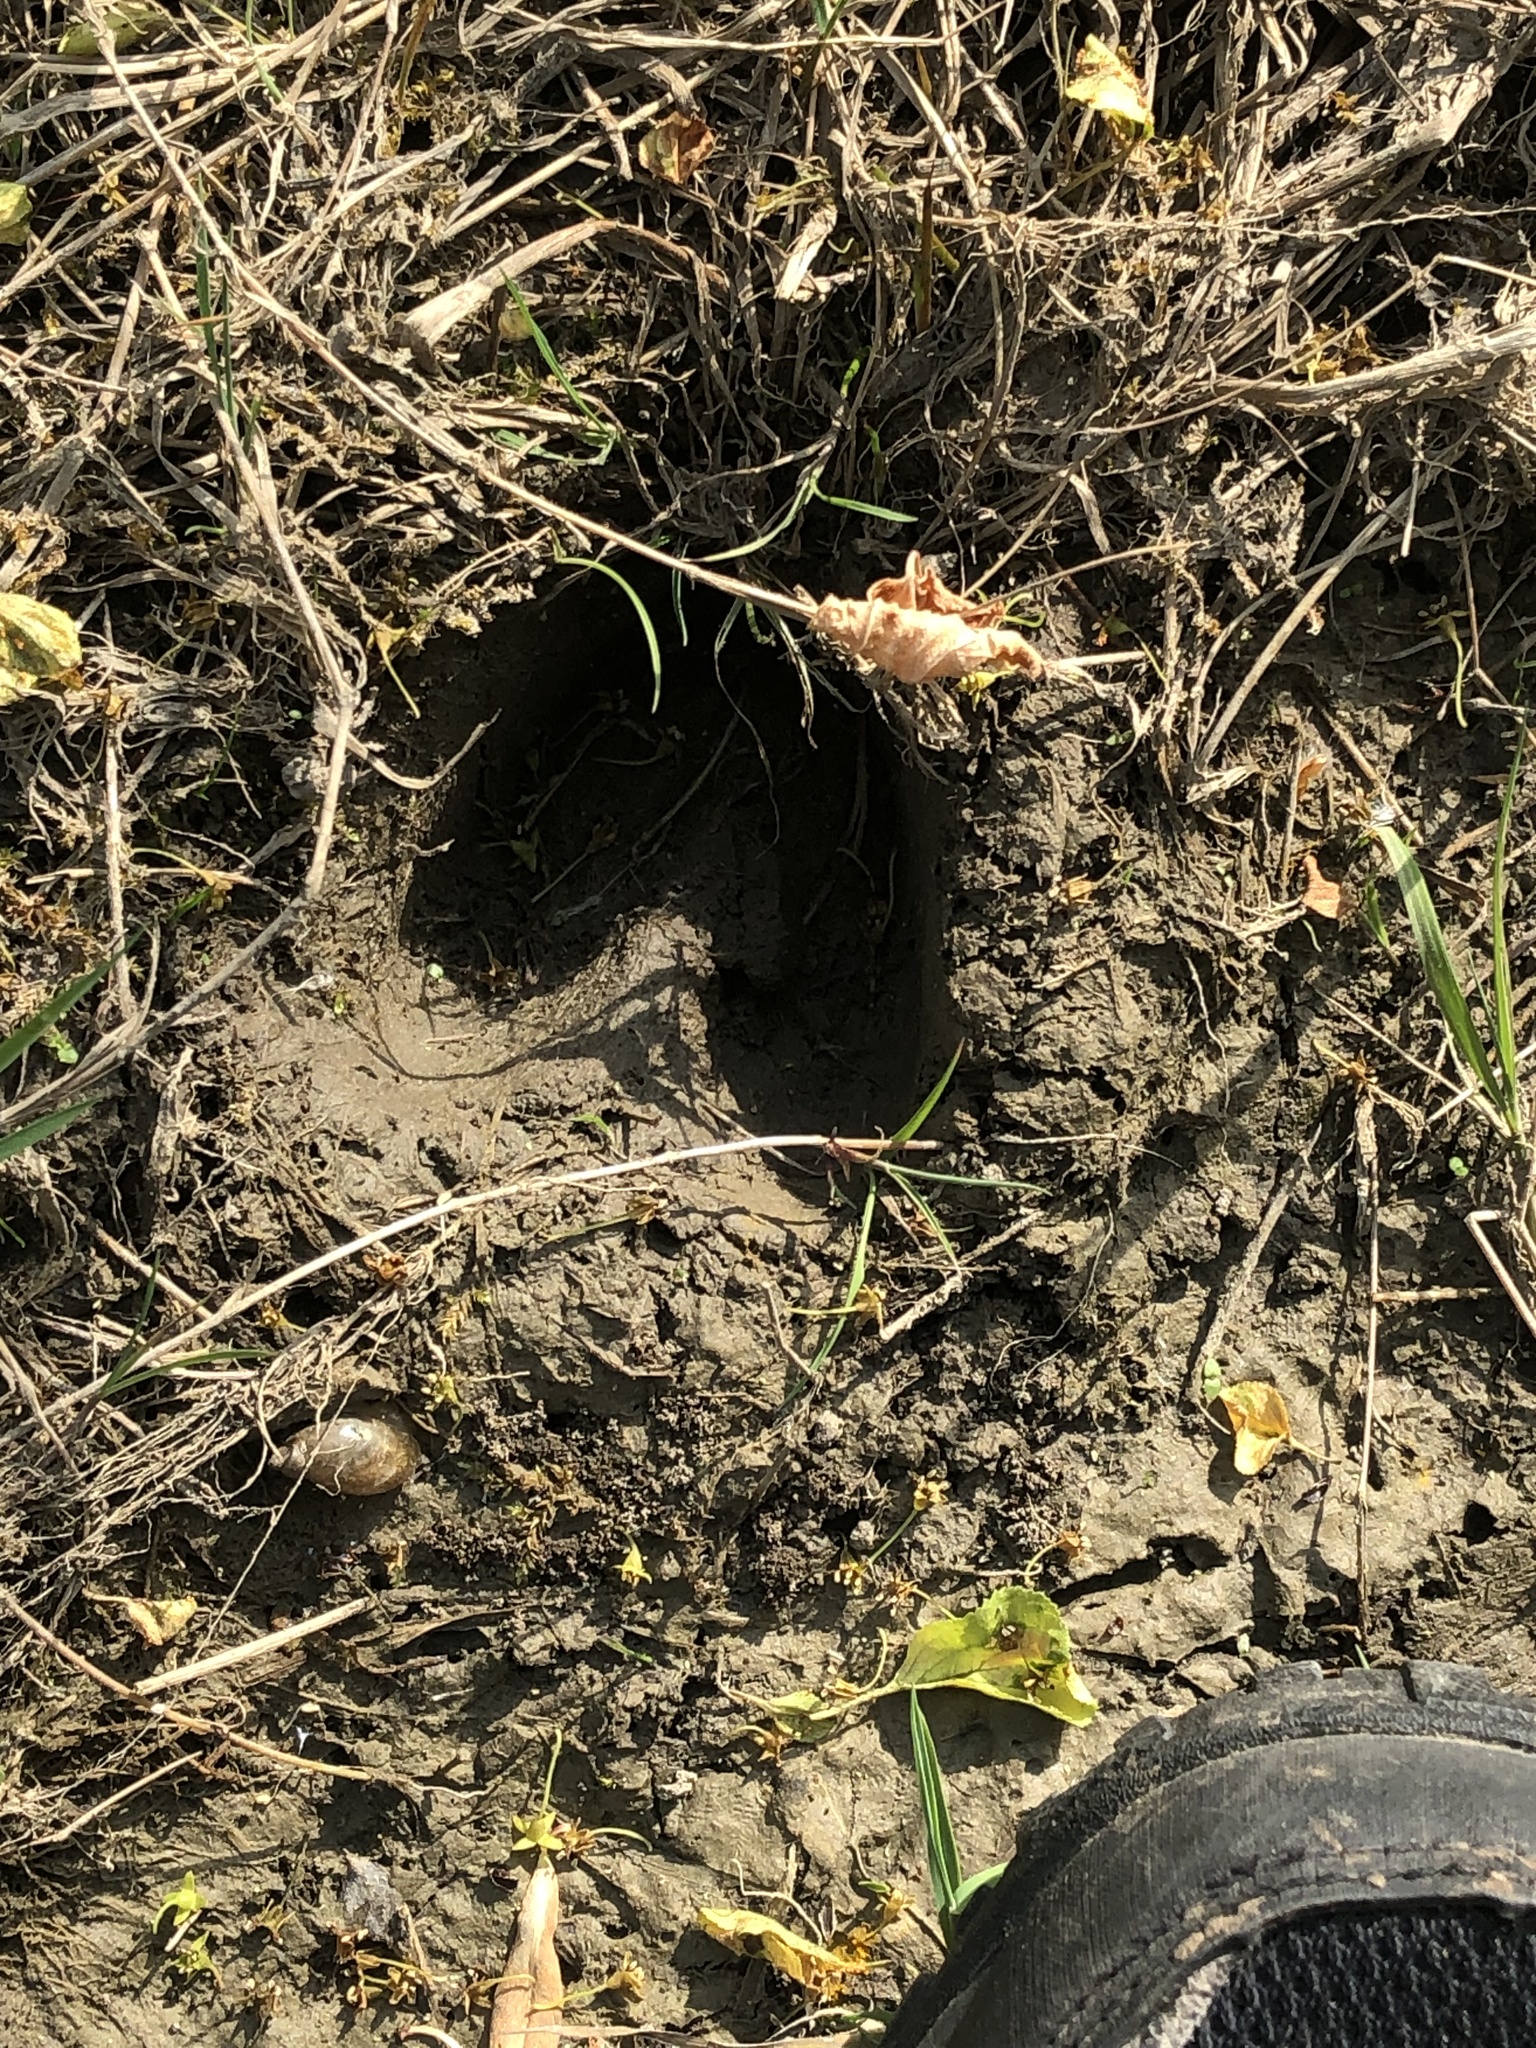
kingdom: Animalia
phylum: Chordata
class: Mammalia
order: Artiodactyla
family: Cervidae
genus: Odocoileus
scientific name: Odocoileus virginianus
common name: White-tailed deer
